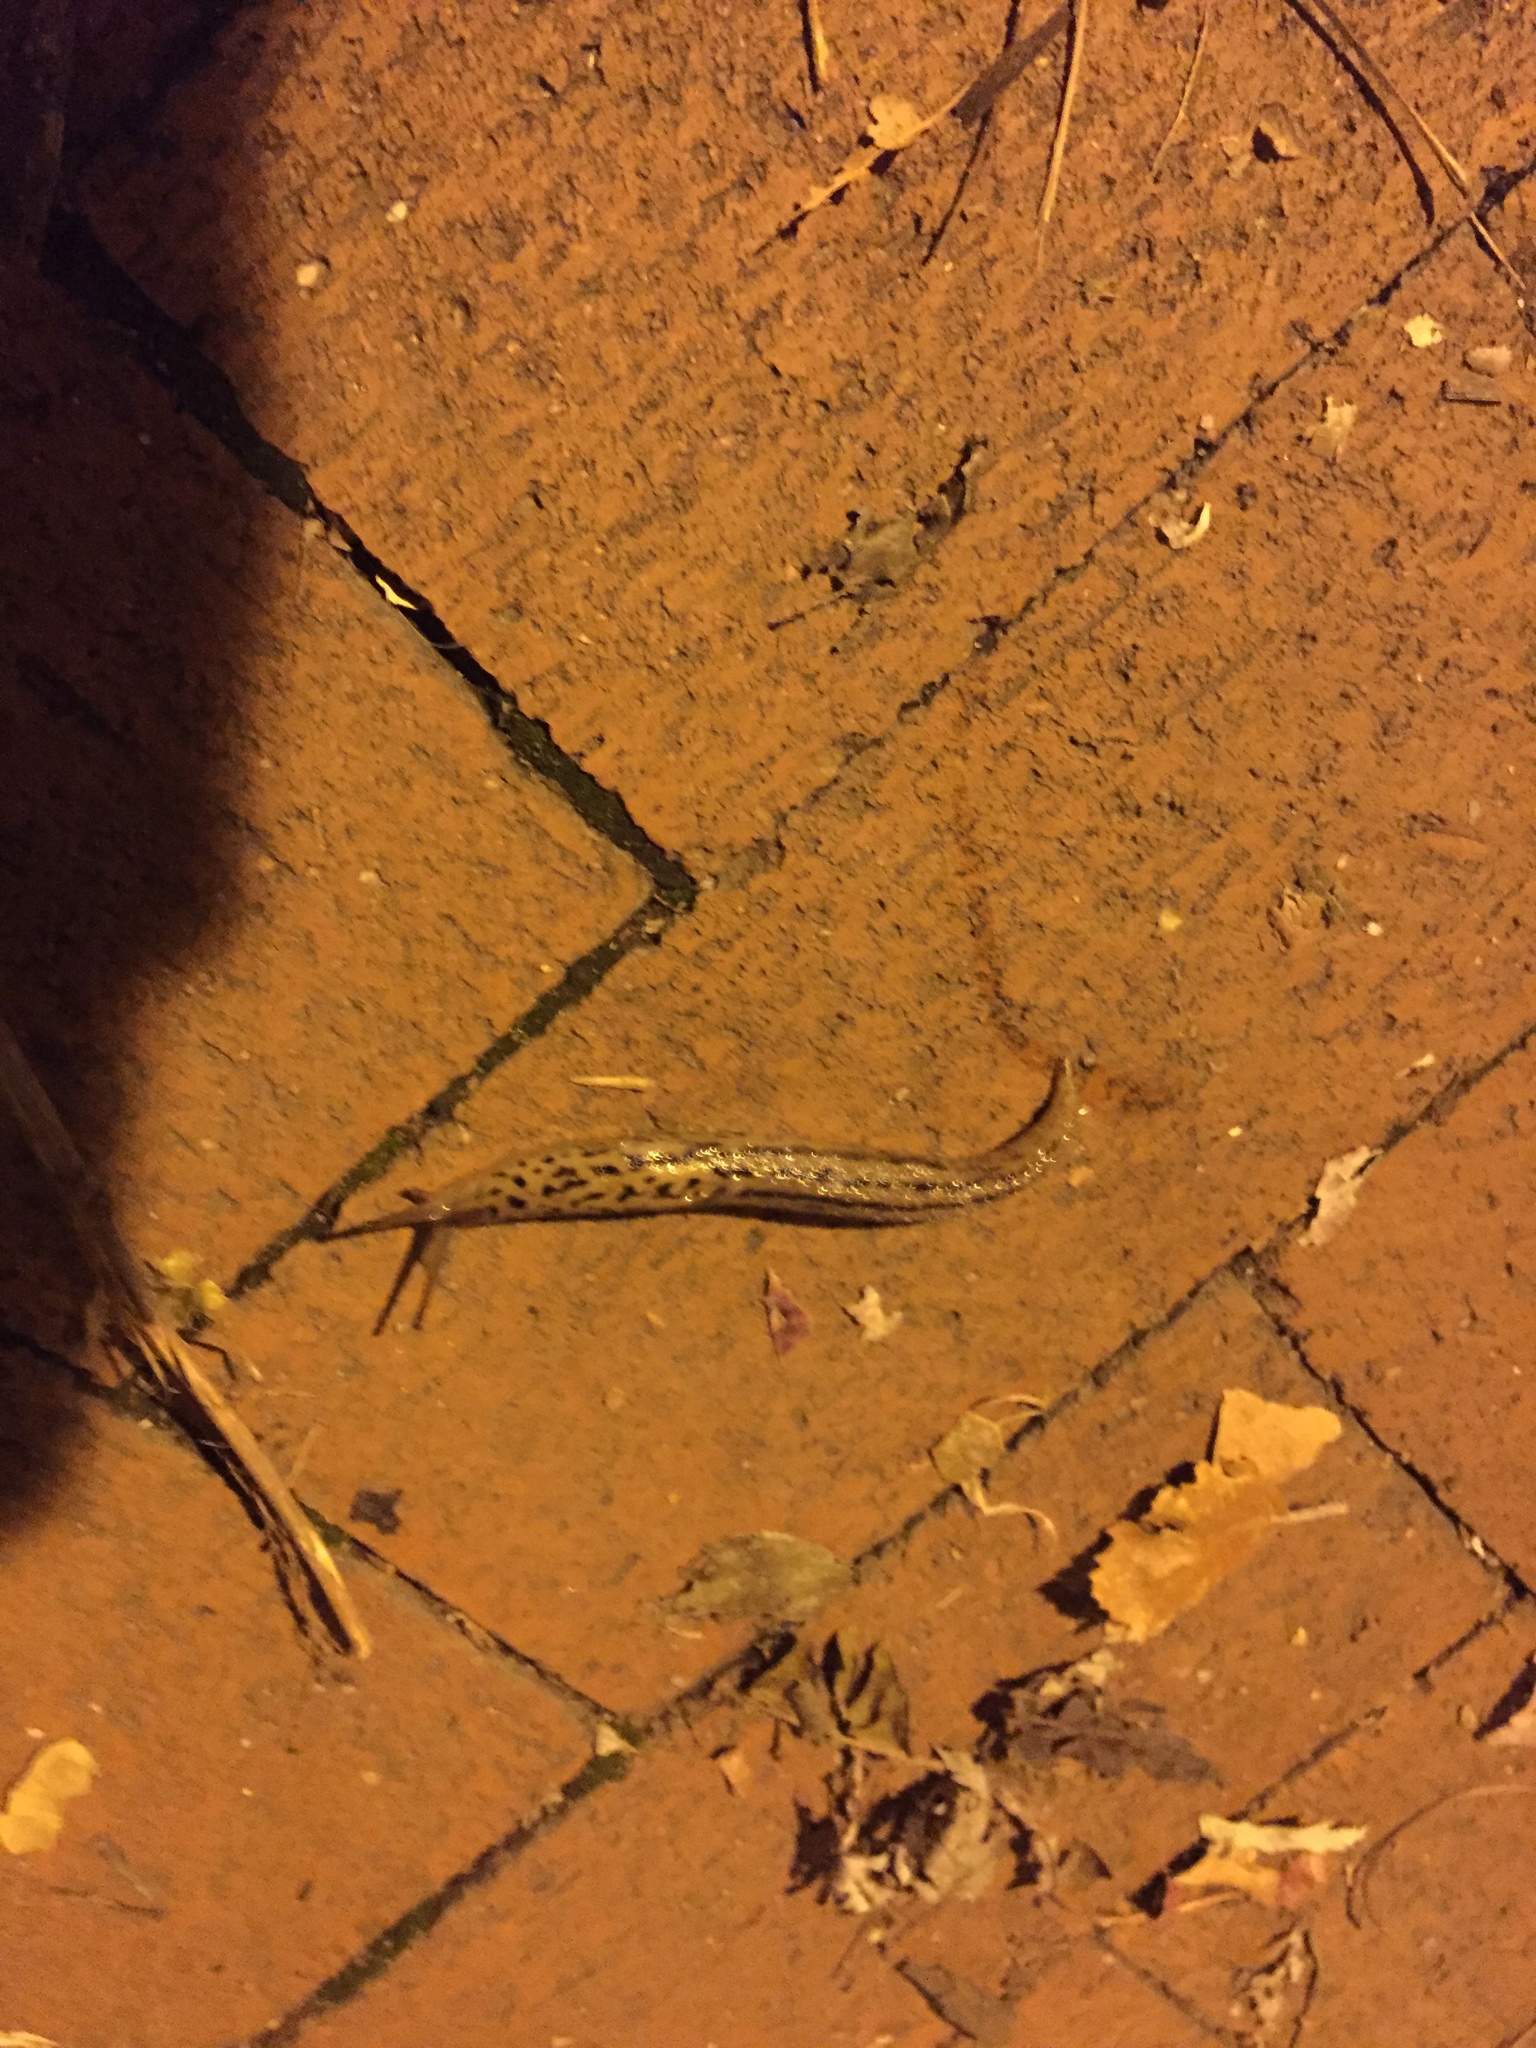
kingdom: Animalia
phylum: Mollusca
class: Gastropoda
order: Stylommatophora
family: Limacidae
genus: Limax
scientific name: Limax maximus
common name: Great grey slug
